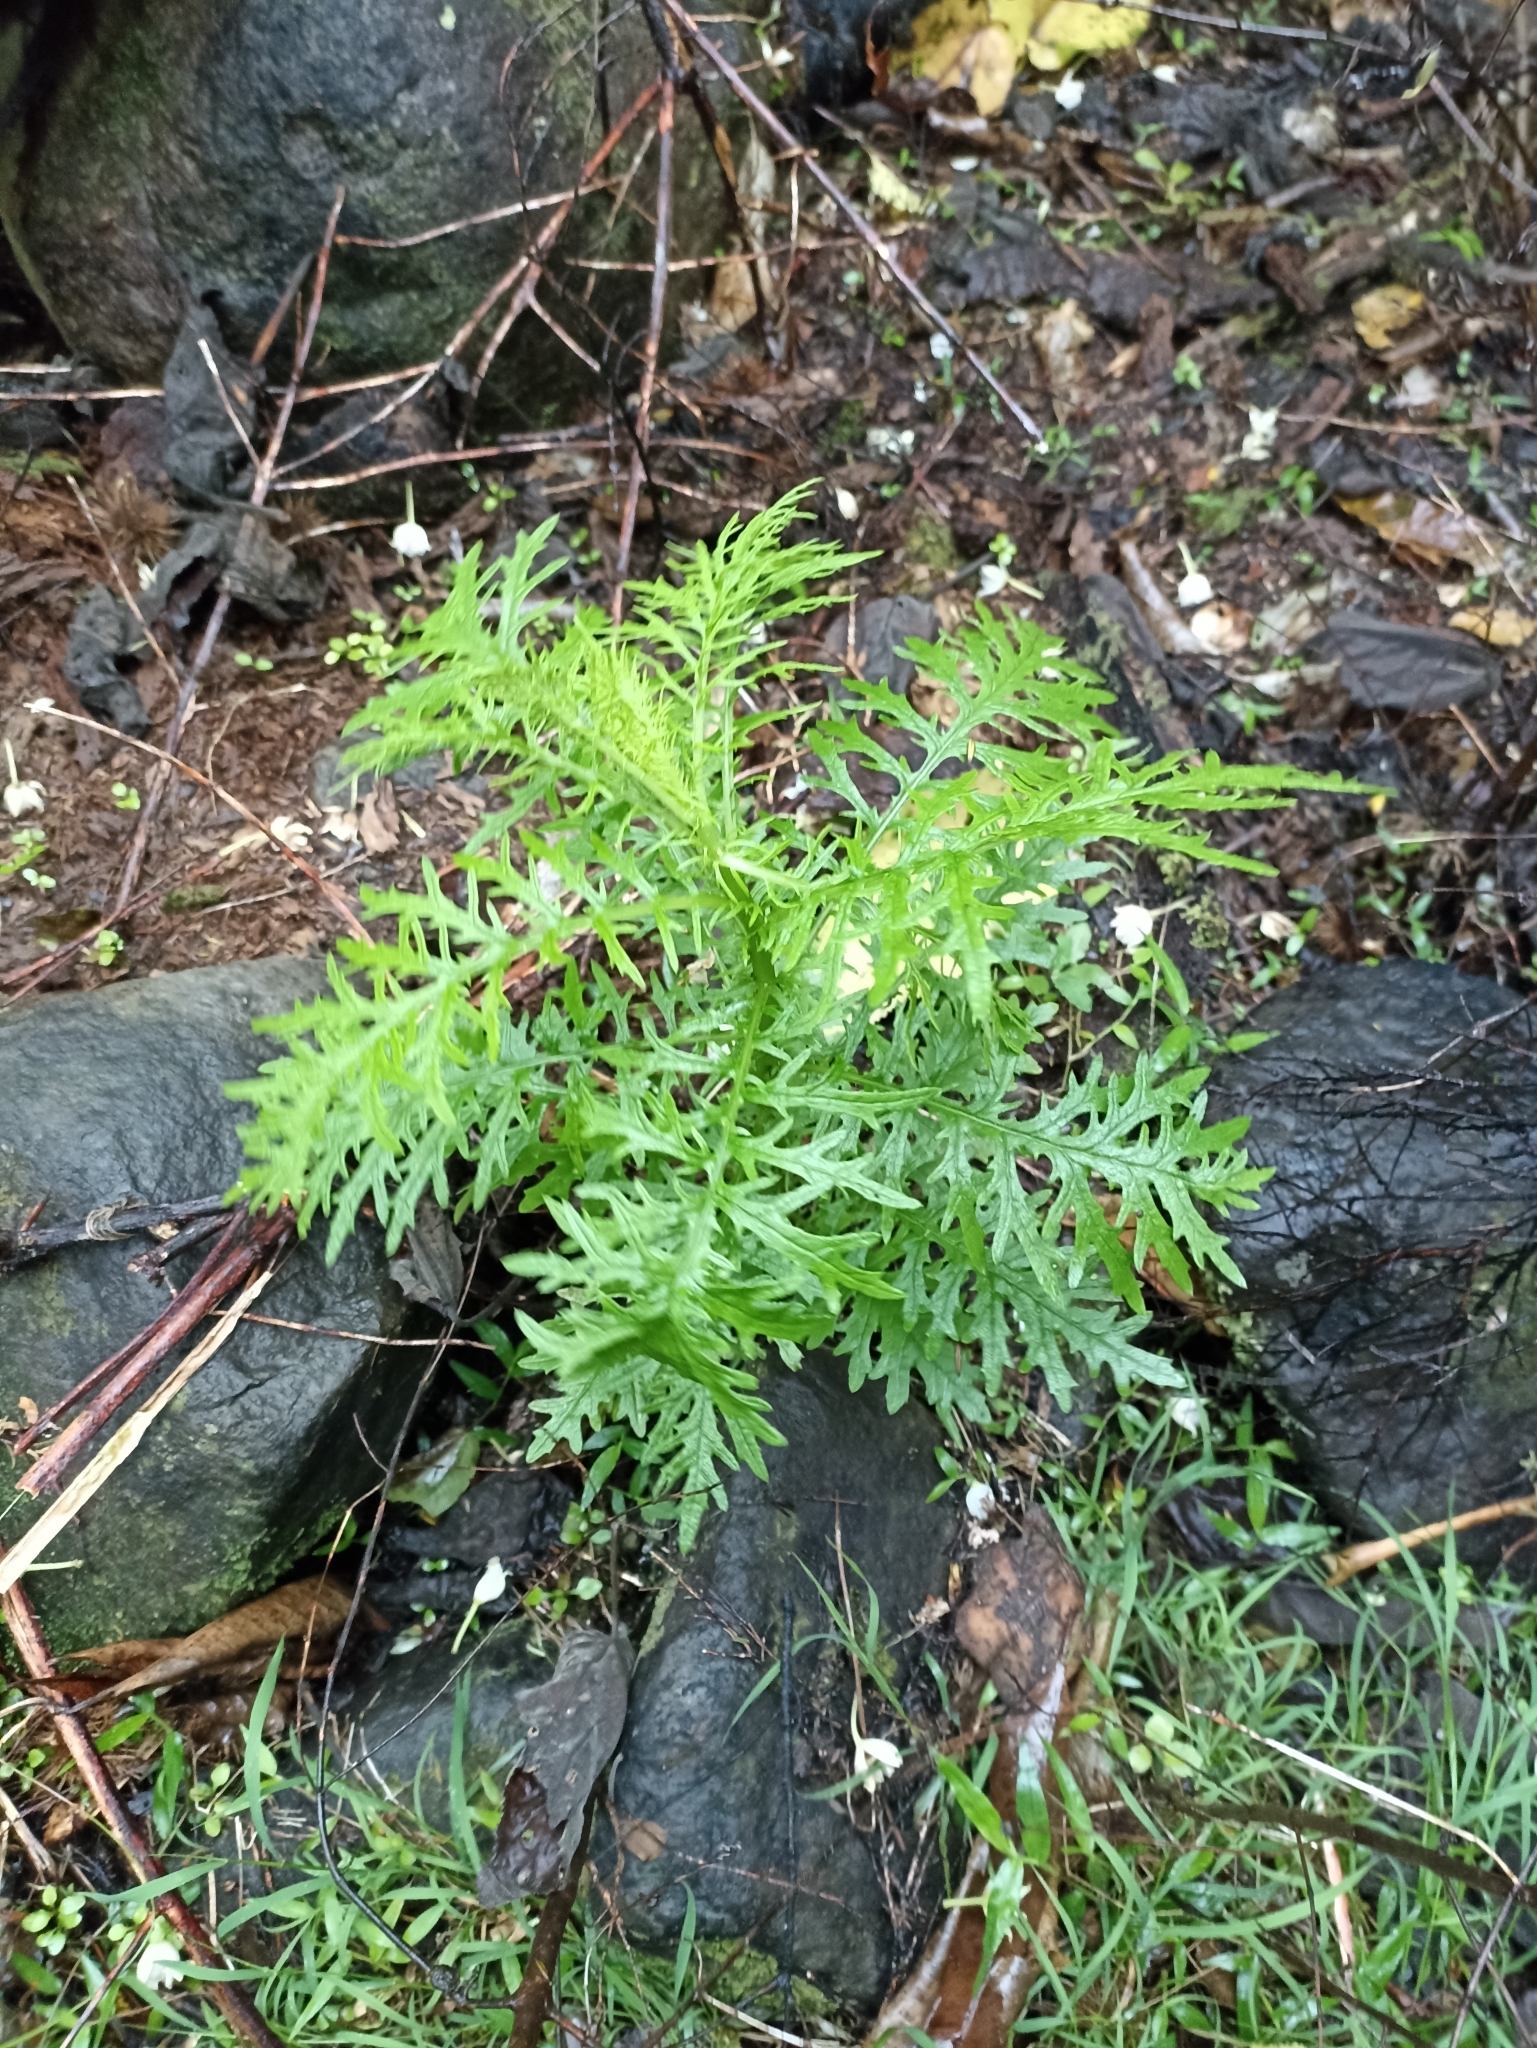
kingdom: Plantae
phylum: Tracheophyta
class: Magnoliopsida
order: Asterales
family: Asteraceae
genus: Senecio
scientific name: Senecio bipinnatisectus
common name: Australian fireweed
